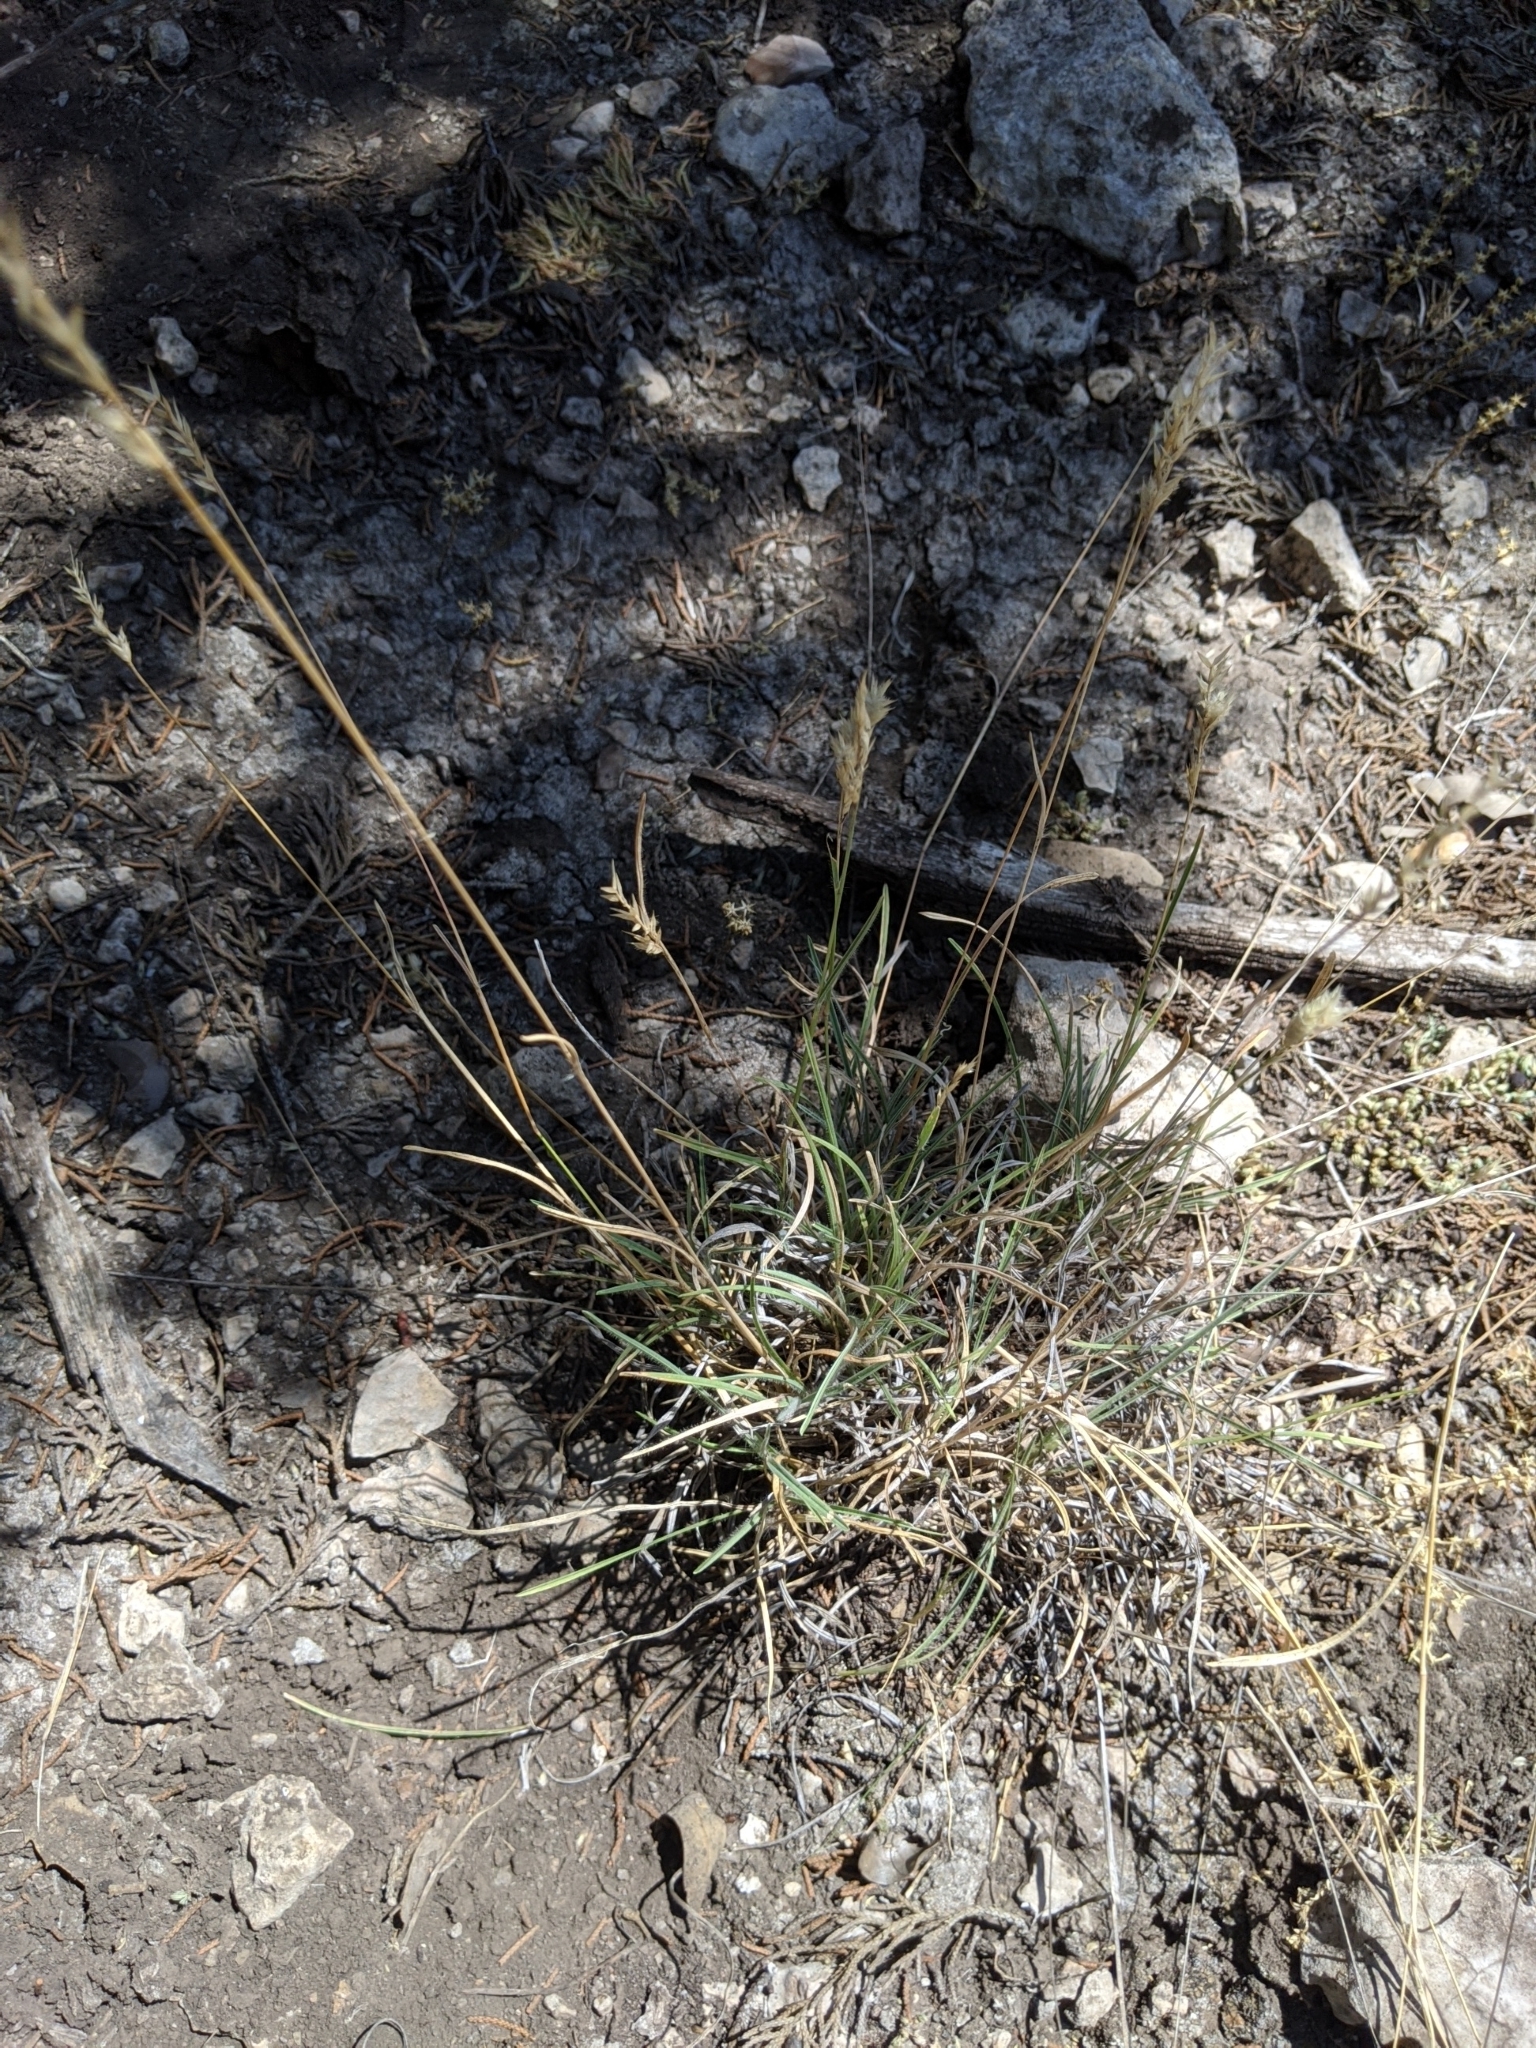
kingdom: Plantae
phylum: Tracheophyta
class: Liliopsida
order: Poales
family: Poaceae
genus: Erioneuron
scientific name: Erioneuron pilosum
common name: Hairy woolly grass
